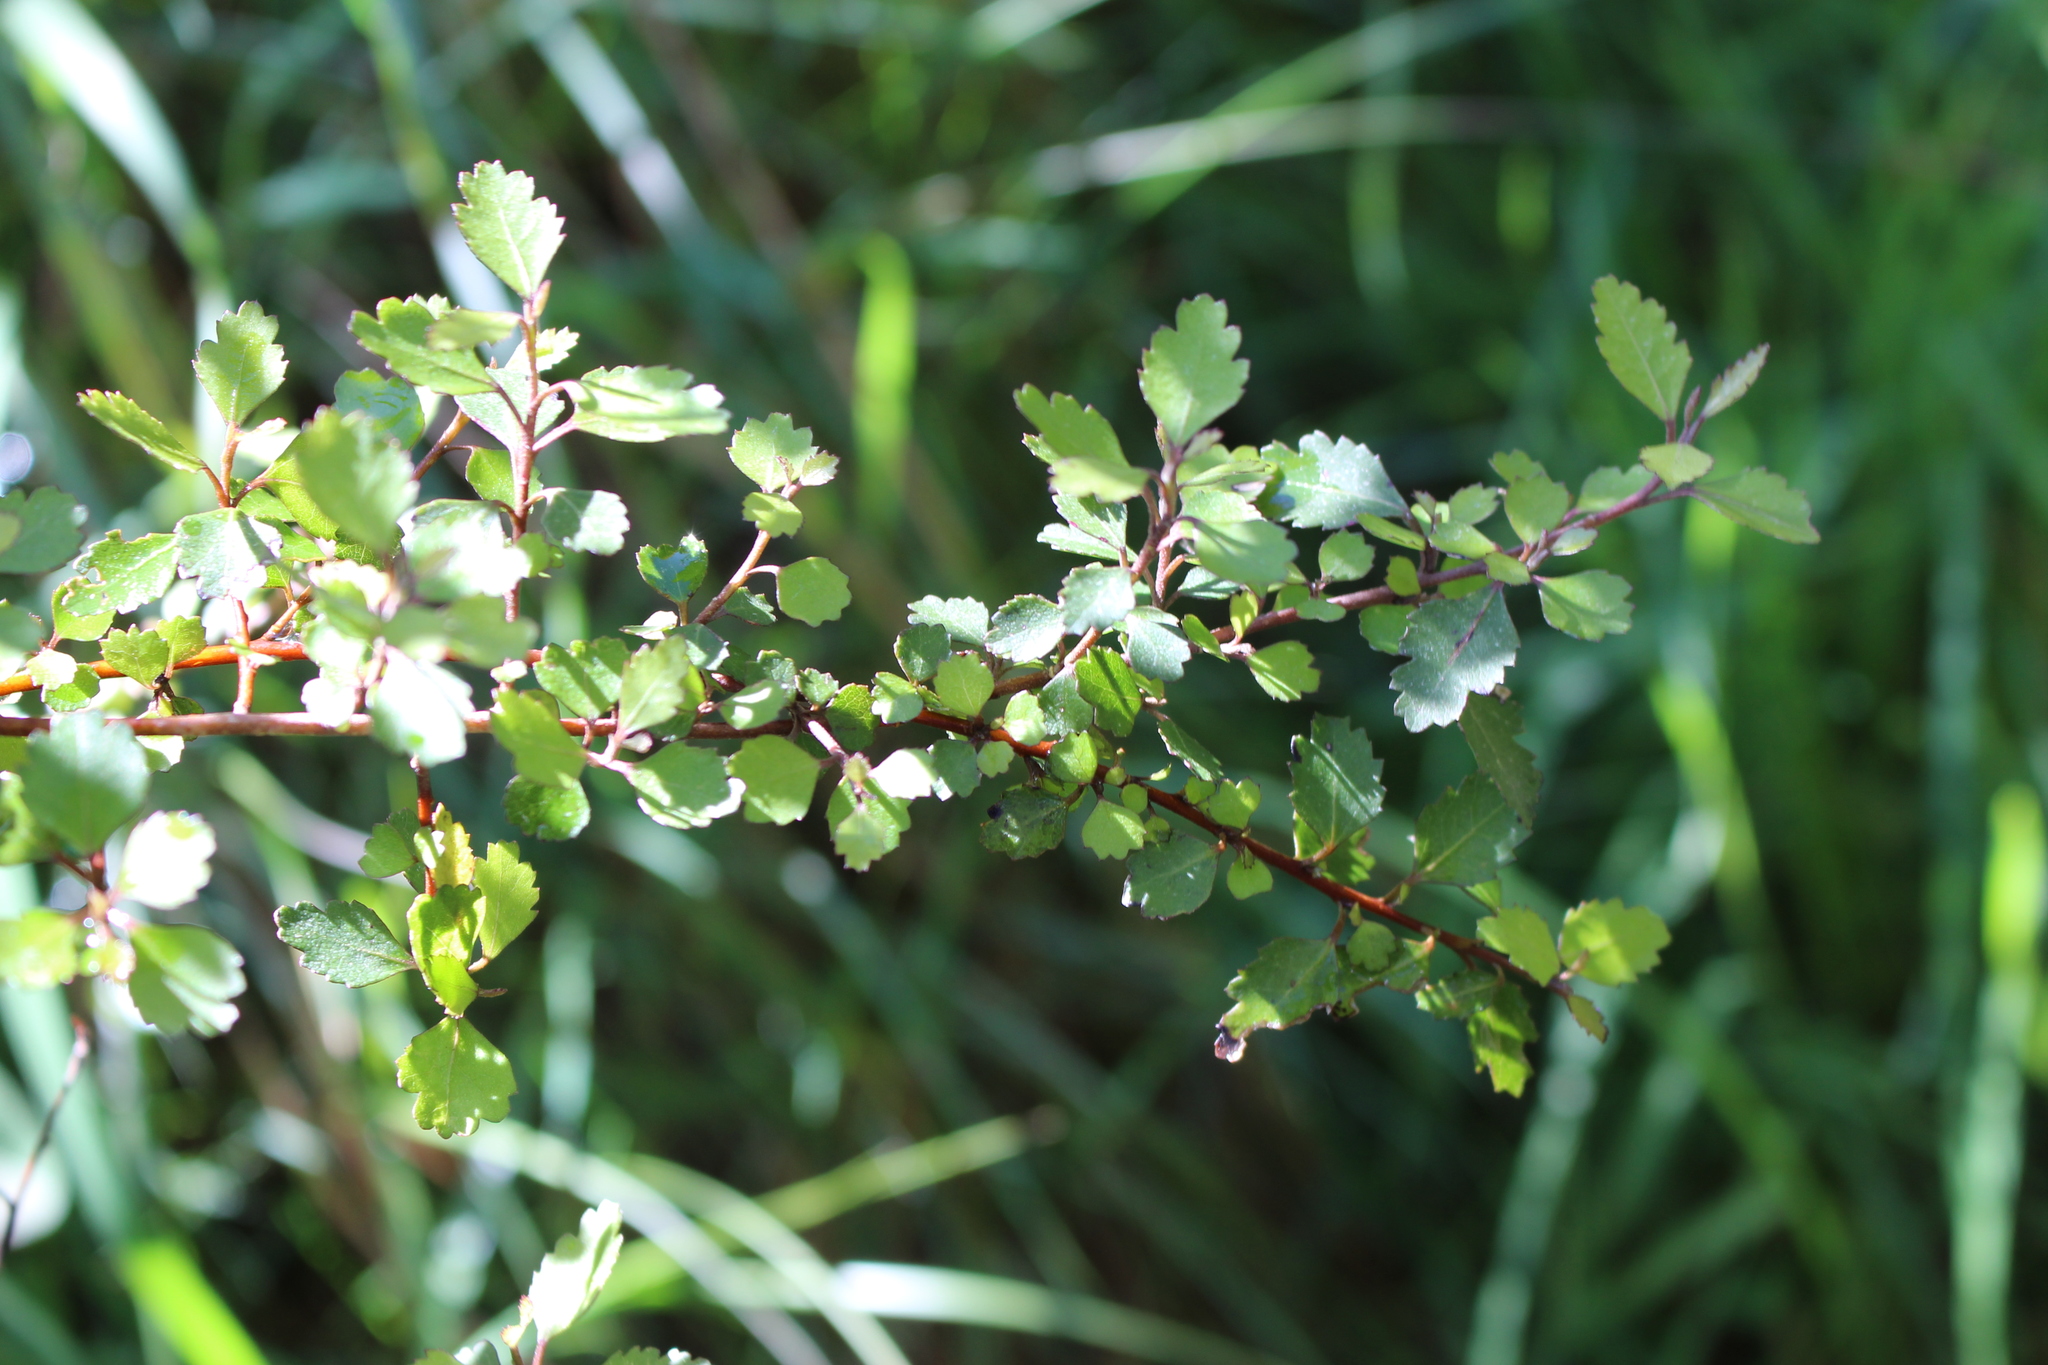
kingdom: Plantae
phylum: Tracheophyta
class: Magnoliopsida
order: Malvales
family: Malvaceae
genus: Hoheria
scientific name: Hoheria angustifolia
